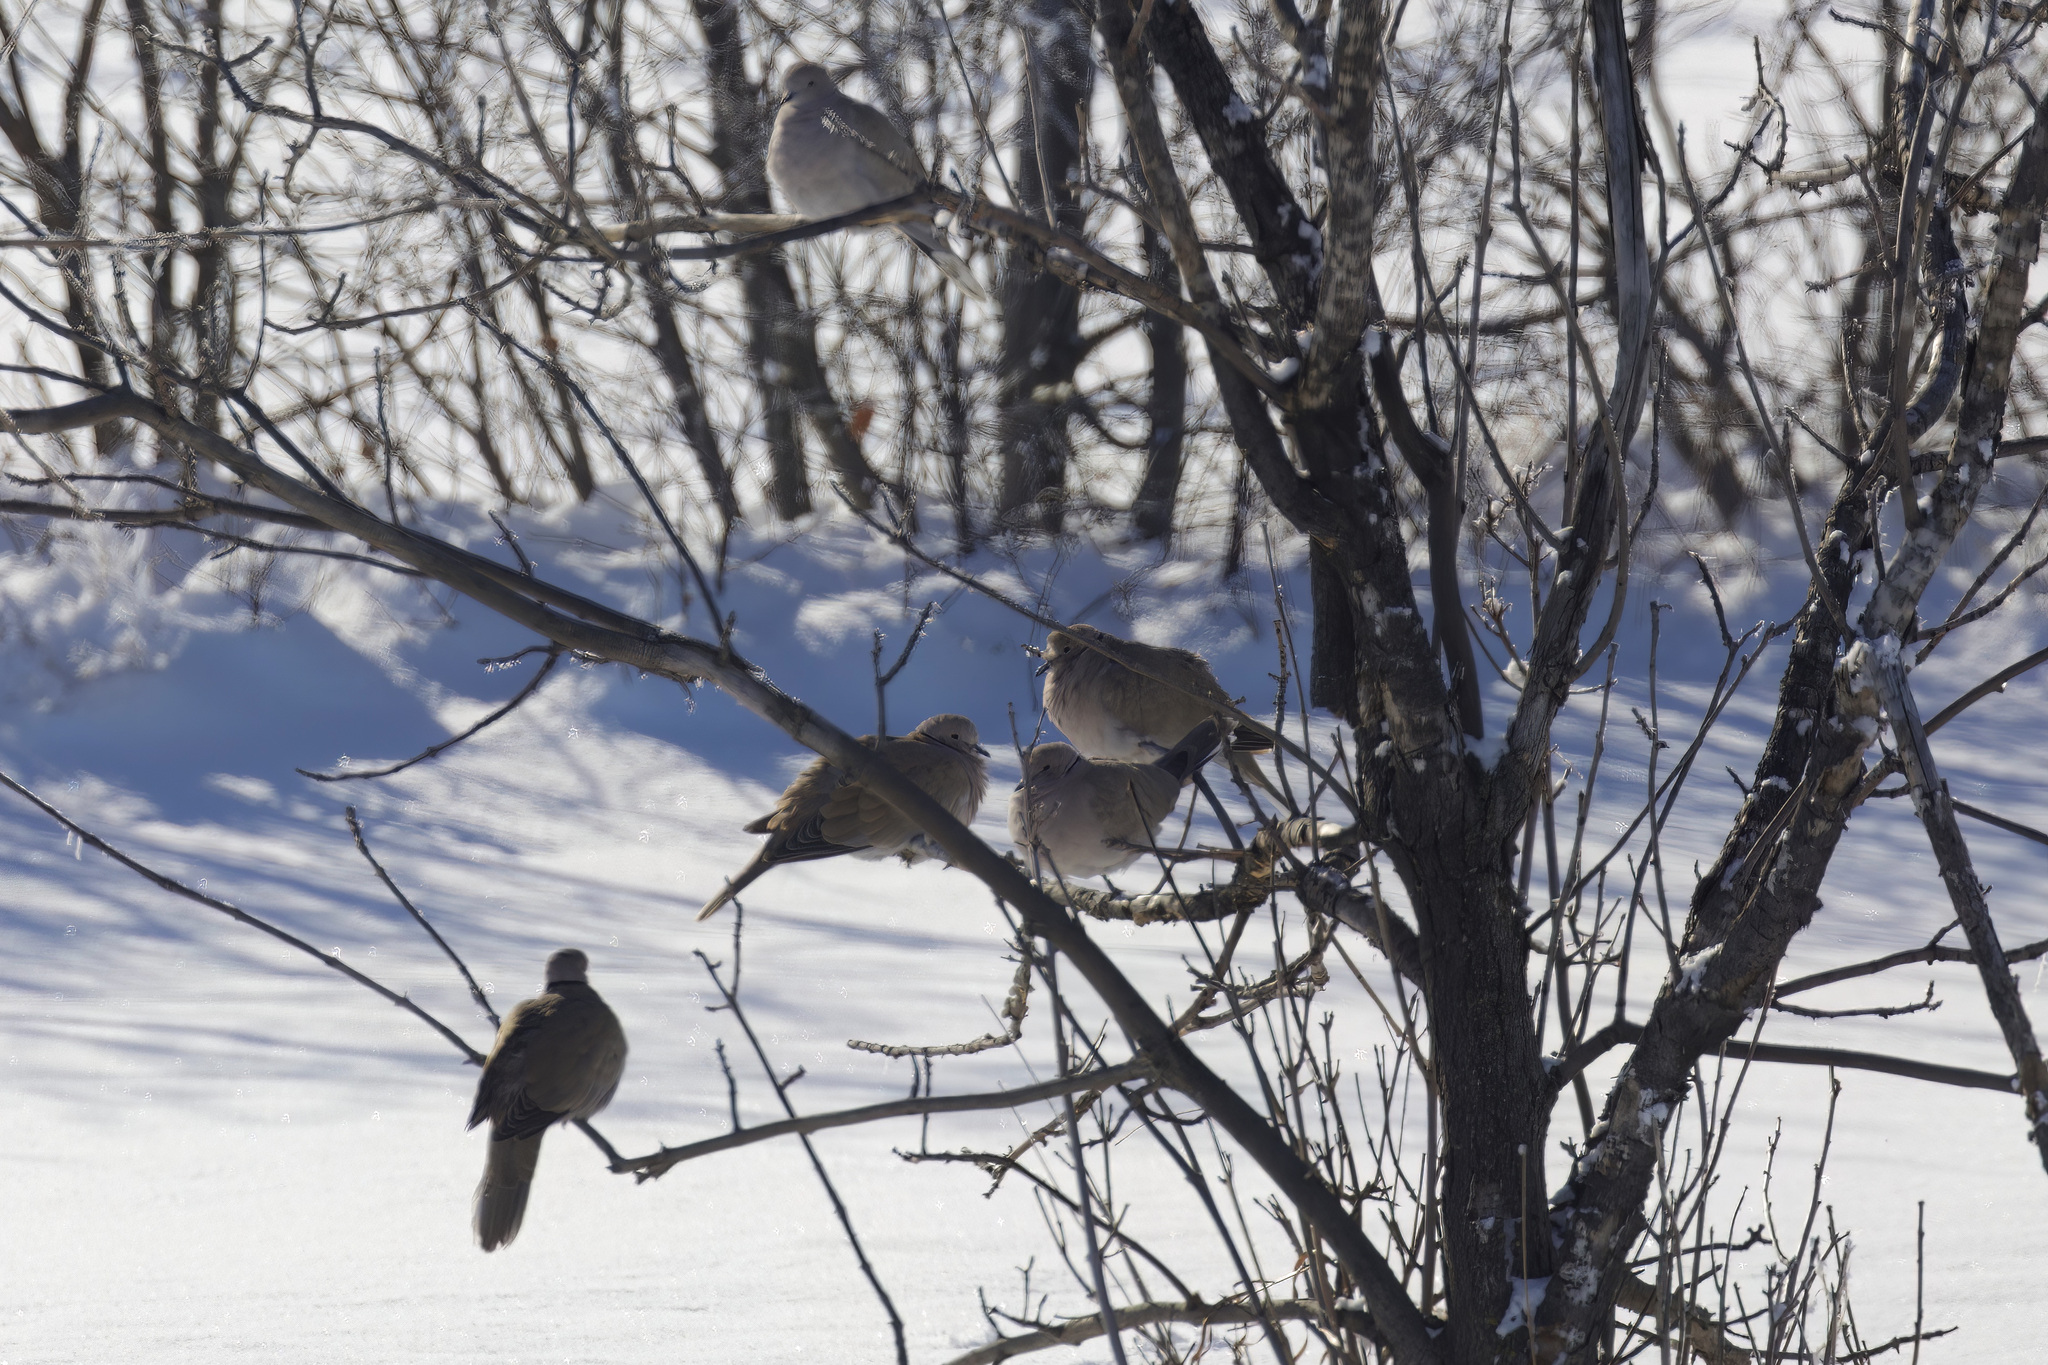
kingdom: Animalia
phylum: Chordata
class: Aves
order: Columbiformes
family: Columbidae
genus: Streptopelia
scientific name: Streptopelia decaocto
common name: Eurasian collared dove
